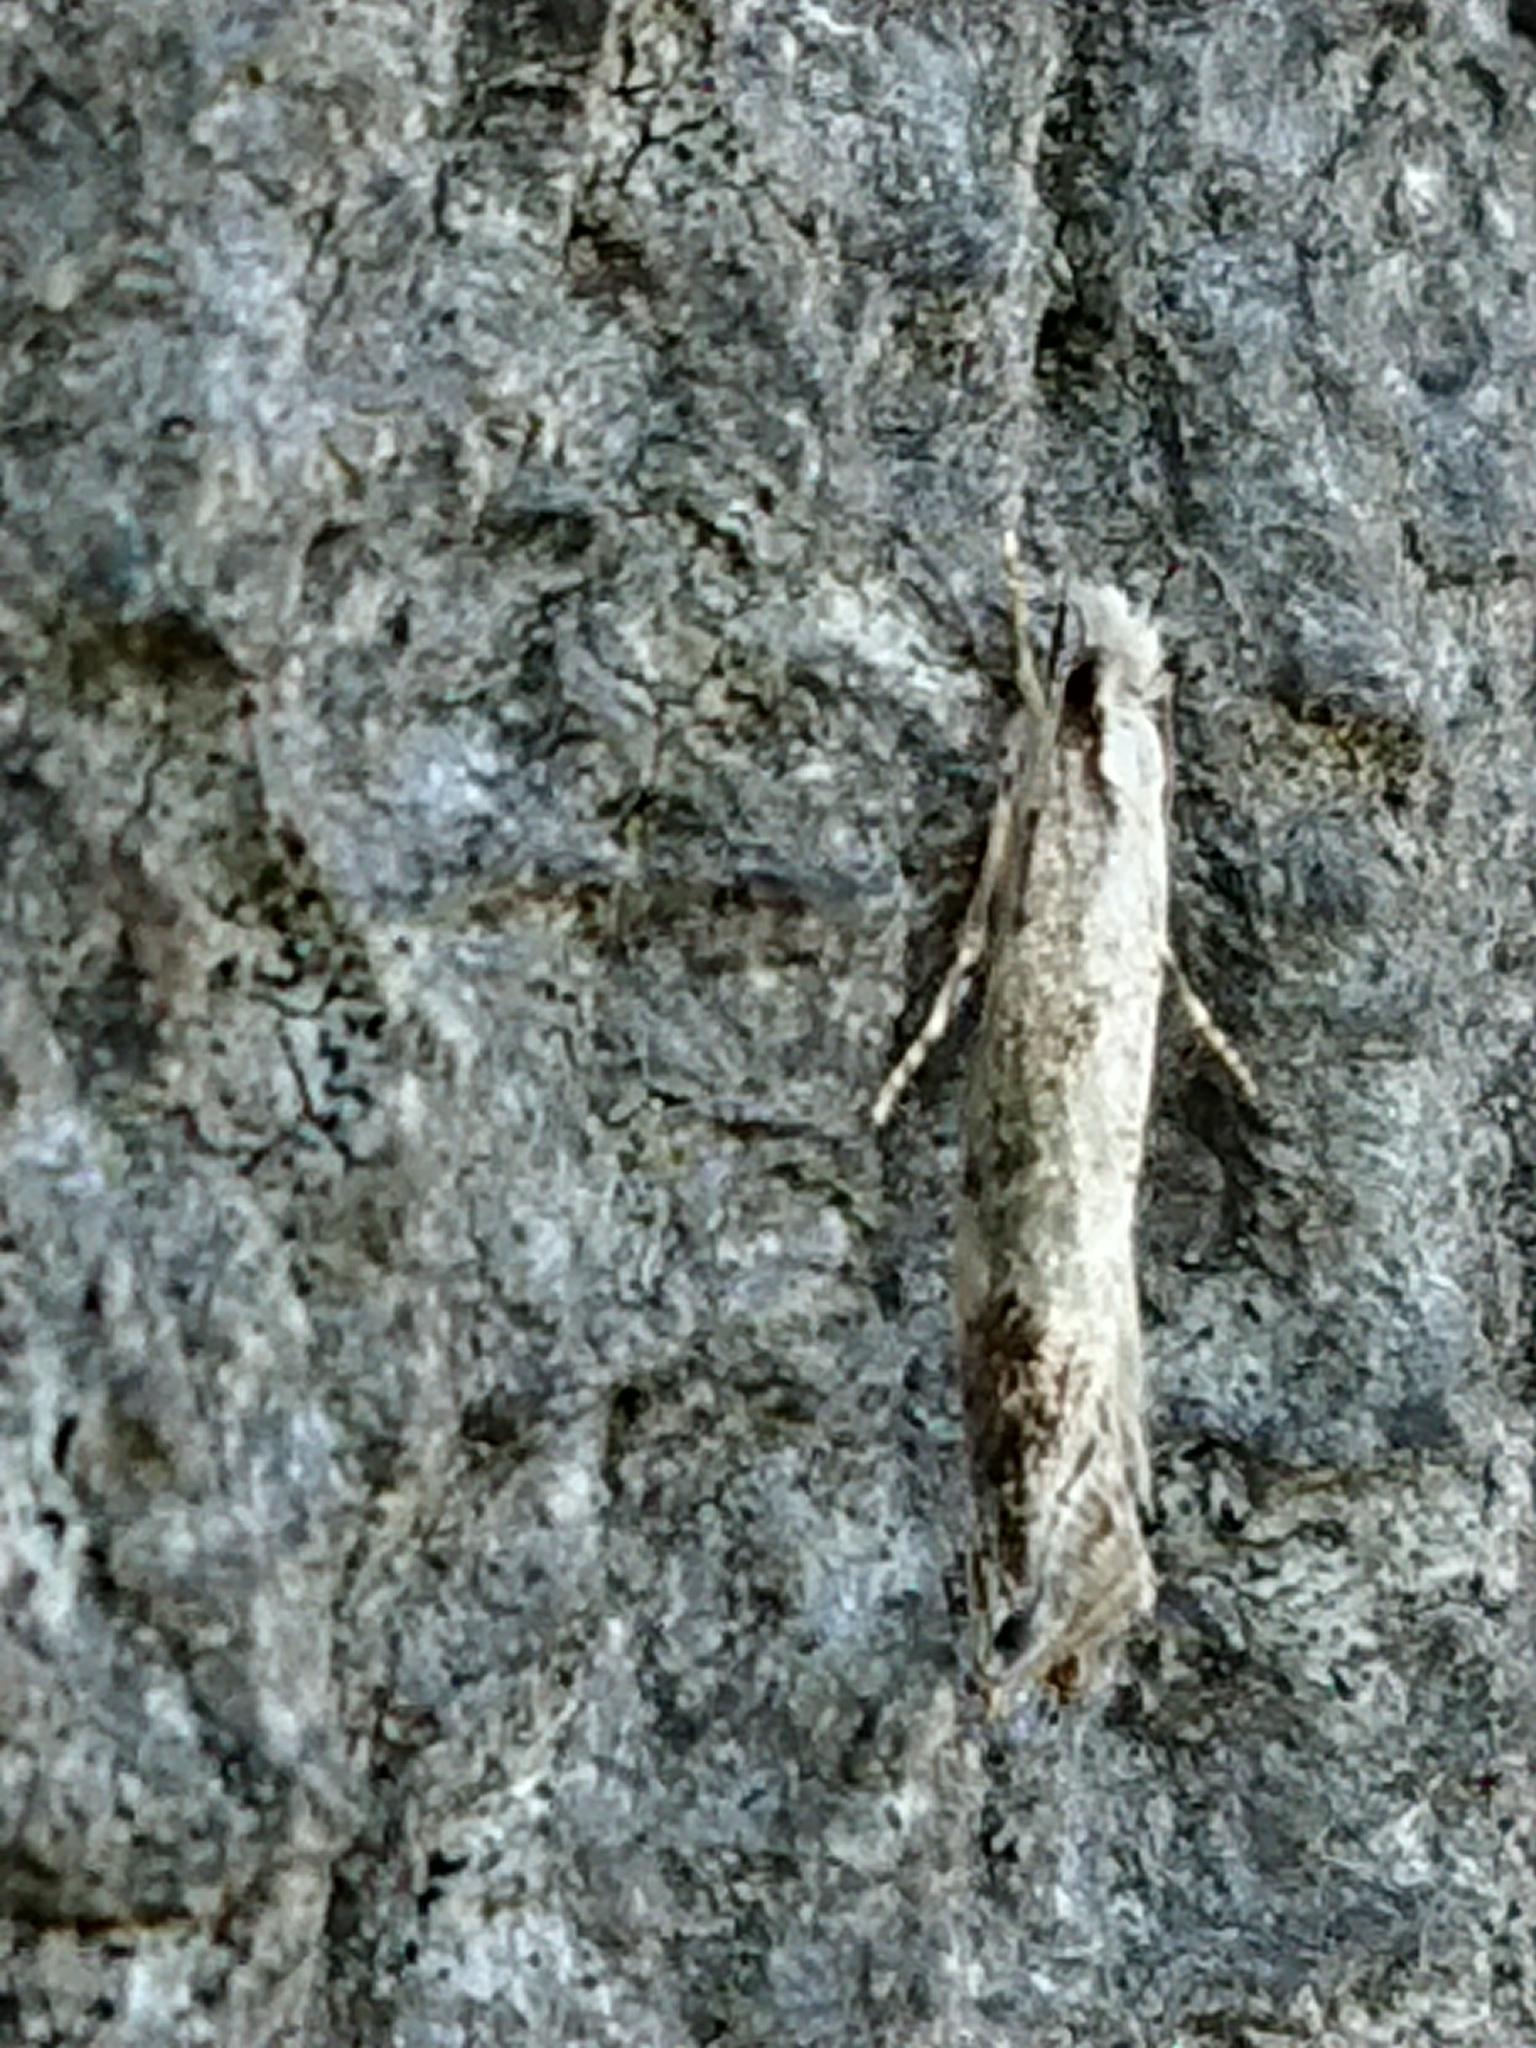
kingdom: Animalia
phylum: Arthropoda
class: Insecta
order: Lepidoptera
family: Tineidae
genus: Erechthias
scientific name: Erechthias fulguritella
